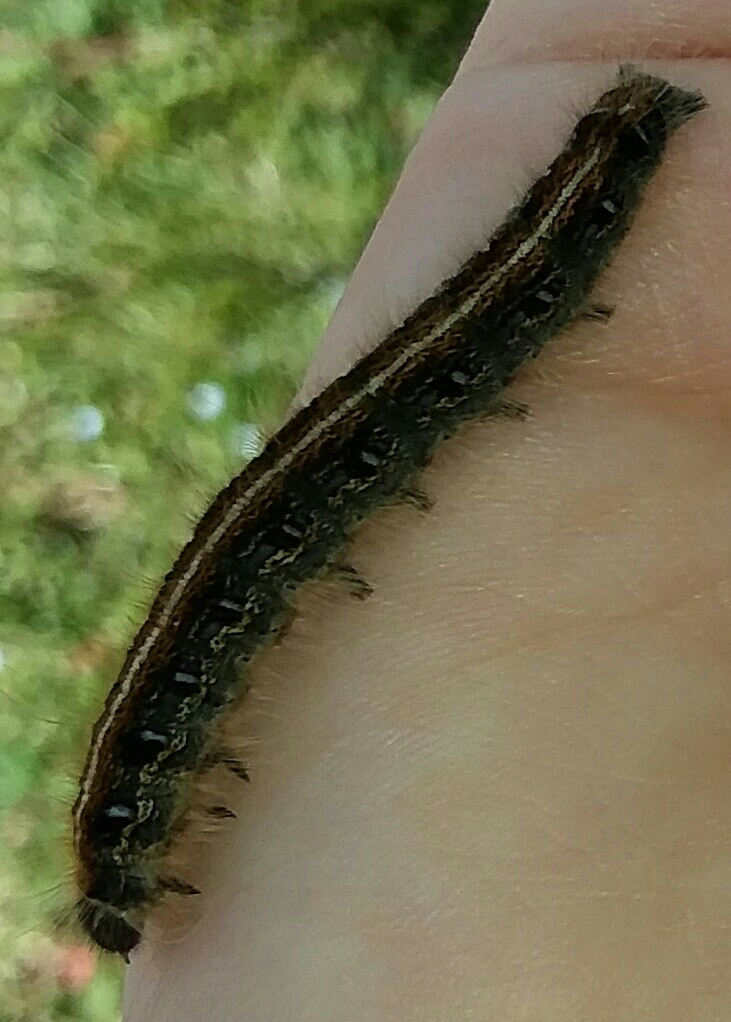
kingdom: Animalia
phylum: Arthropoda
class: Insecta
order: Lepidoptera
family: Lasiocampidae
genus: Malacosoma
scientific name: Malacosoma americana
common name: Eastern tent caterpillar moth
